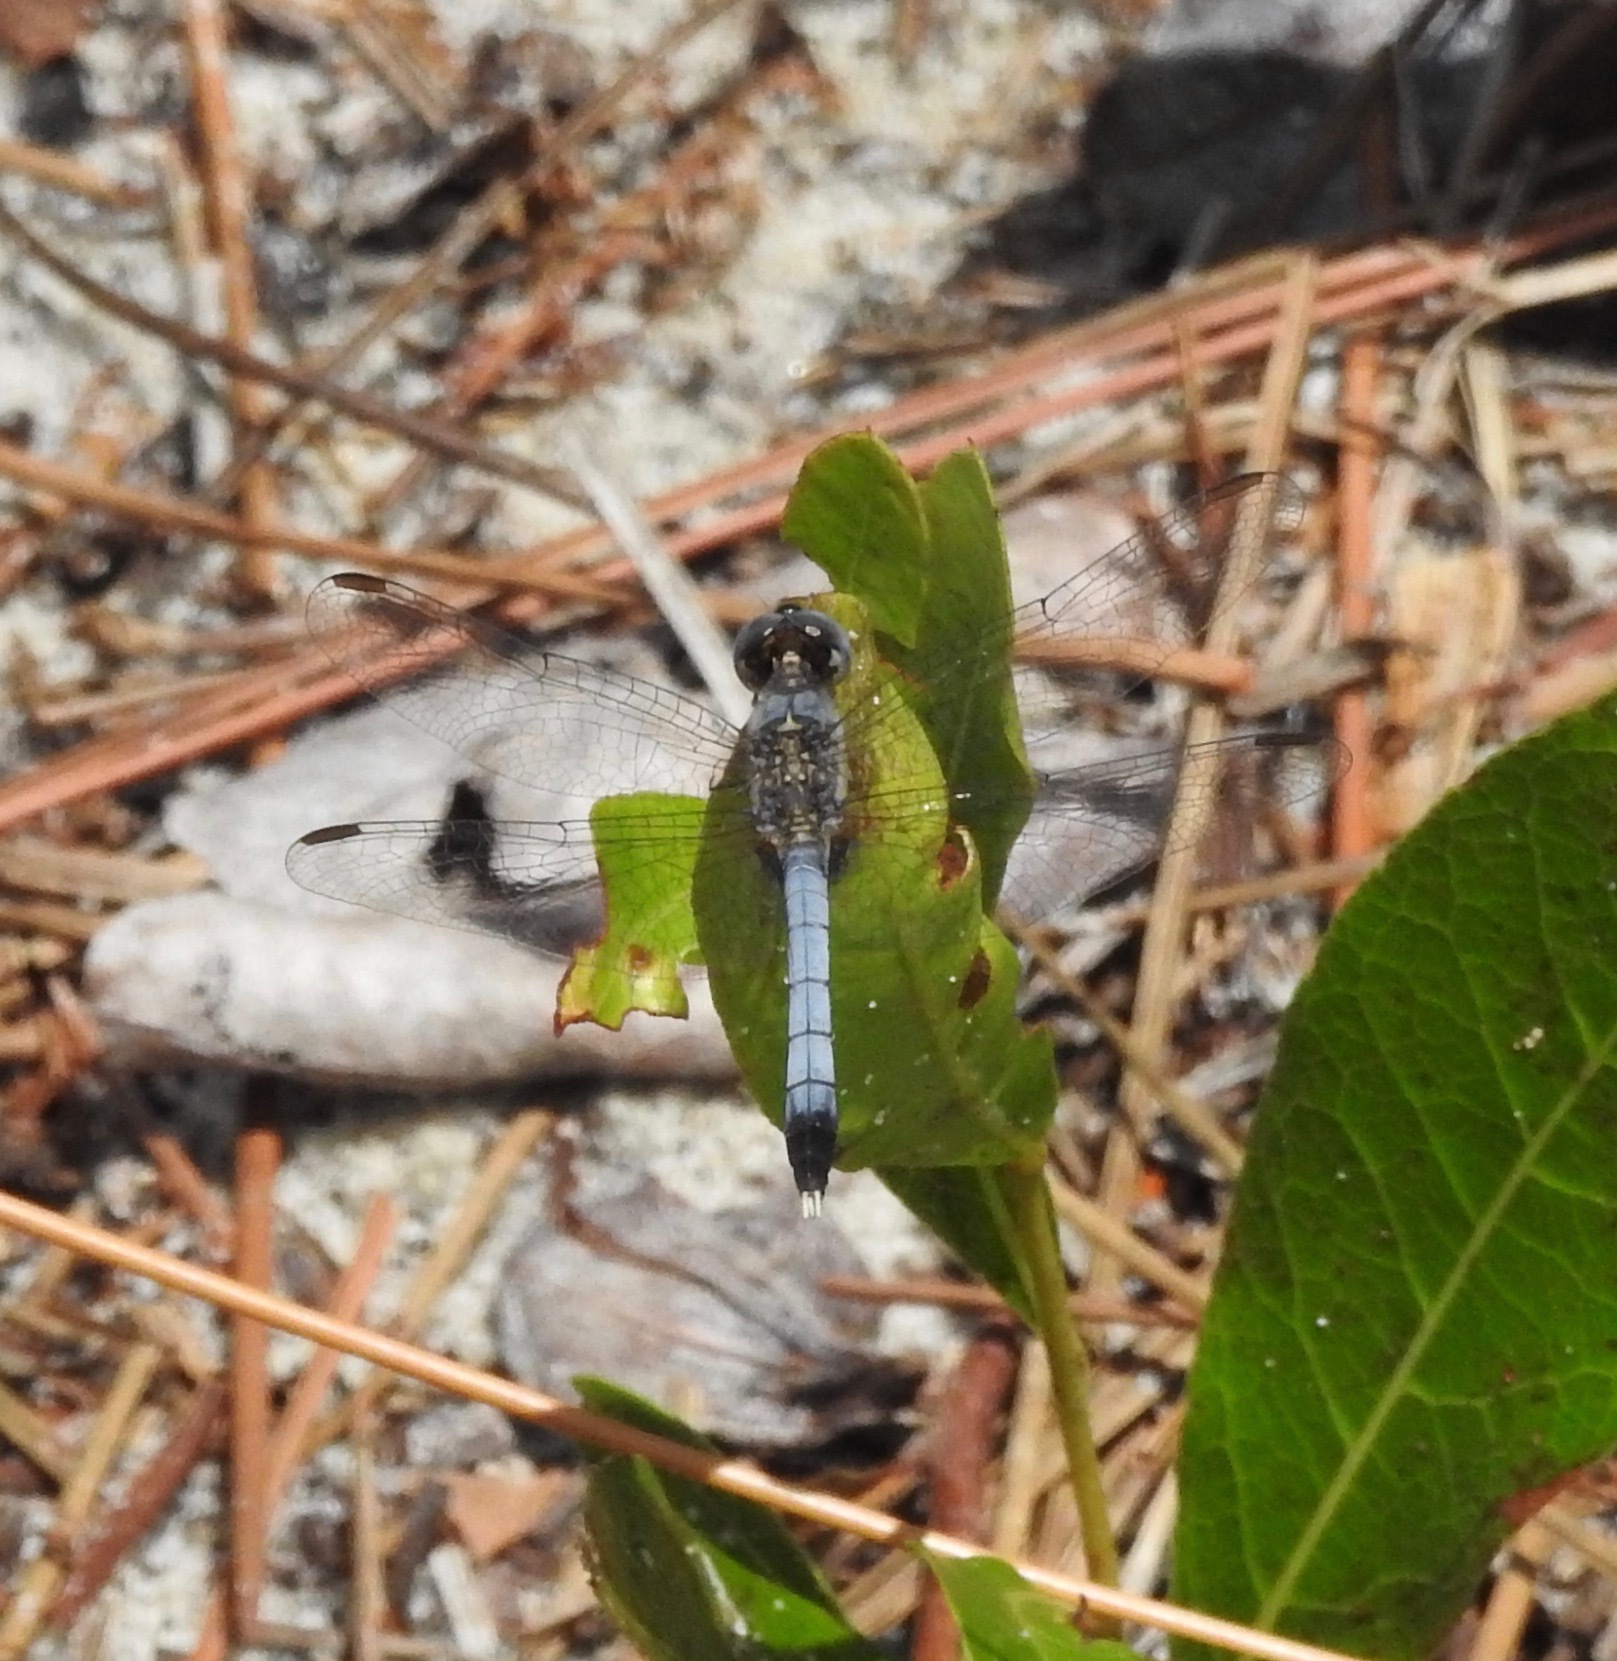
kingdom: Animalia
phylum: Arthropoda
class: Insecta
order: Odonata
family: Libellulidae
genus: Erythrodiplax
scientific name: Erythrodiplax minuscula
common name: Little blue dragonlet
